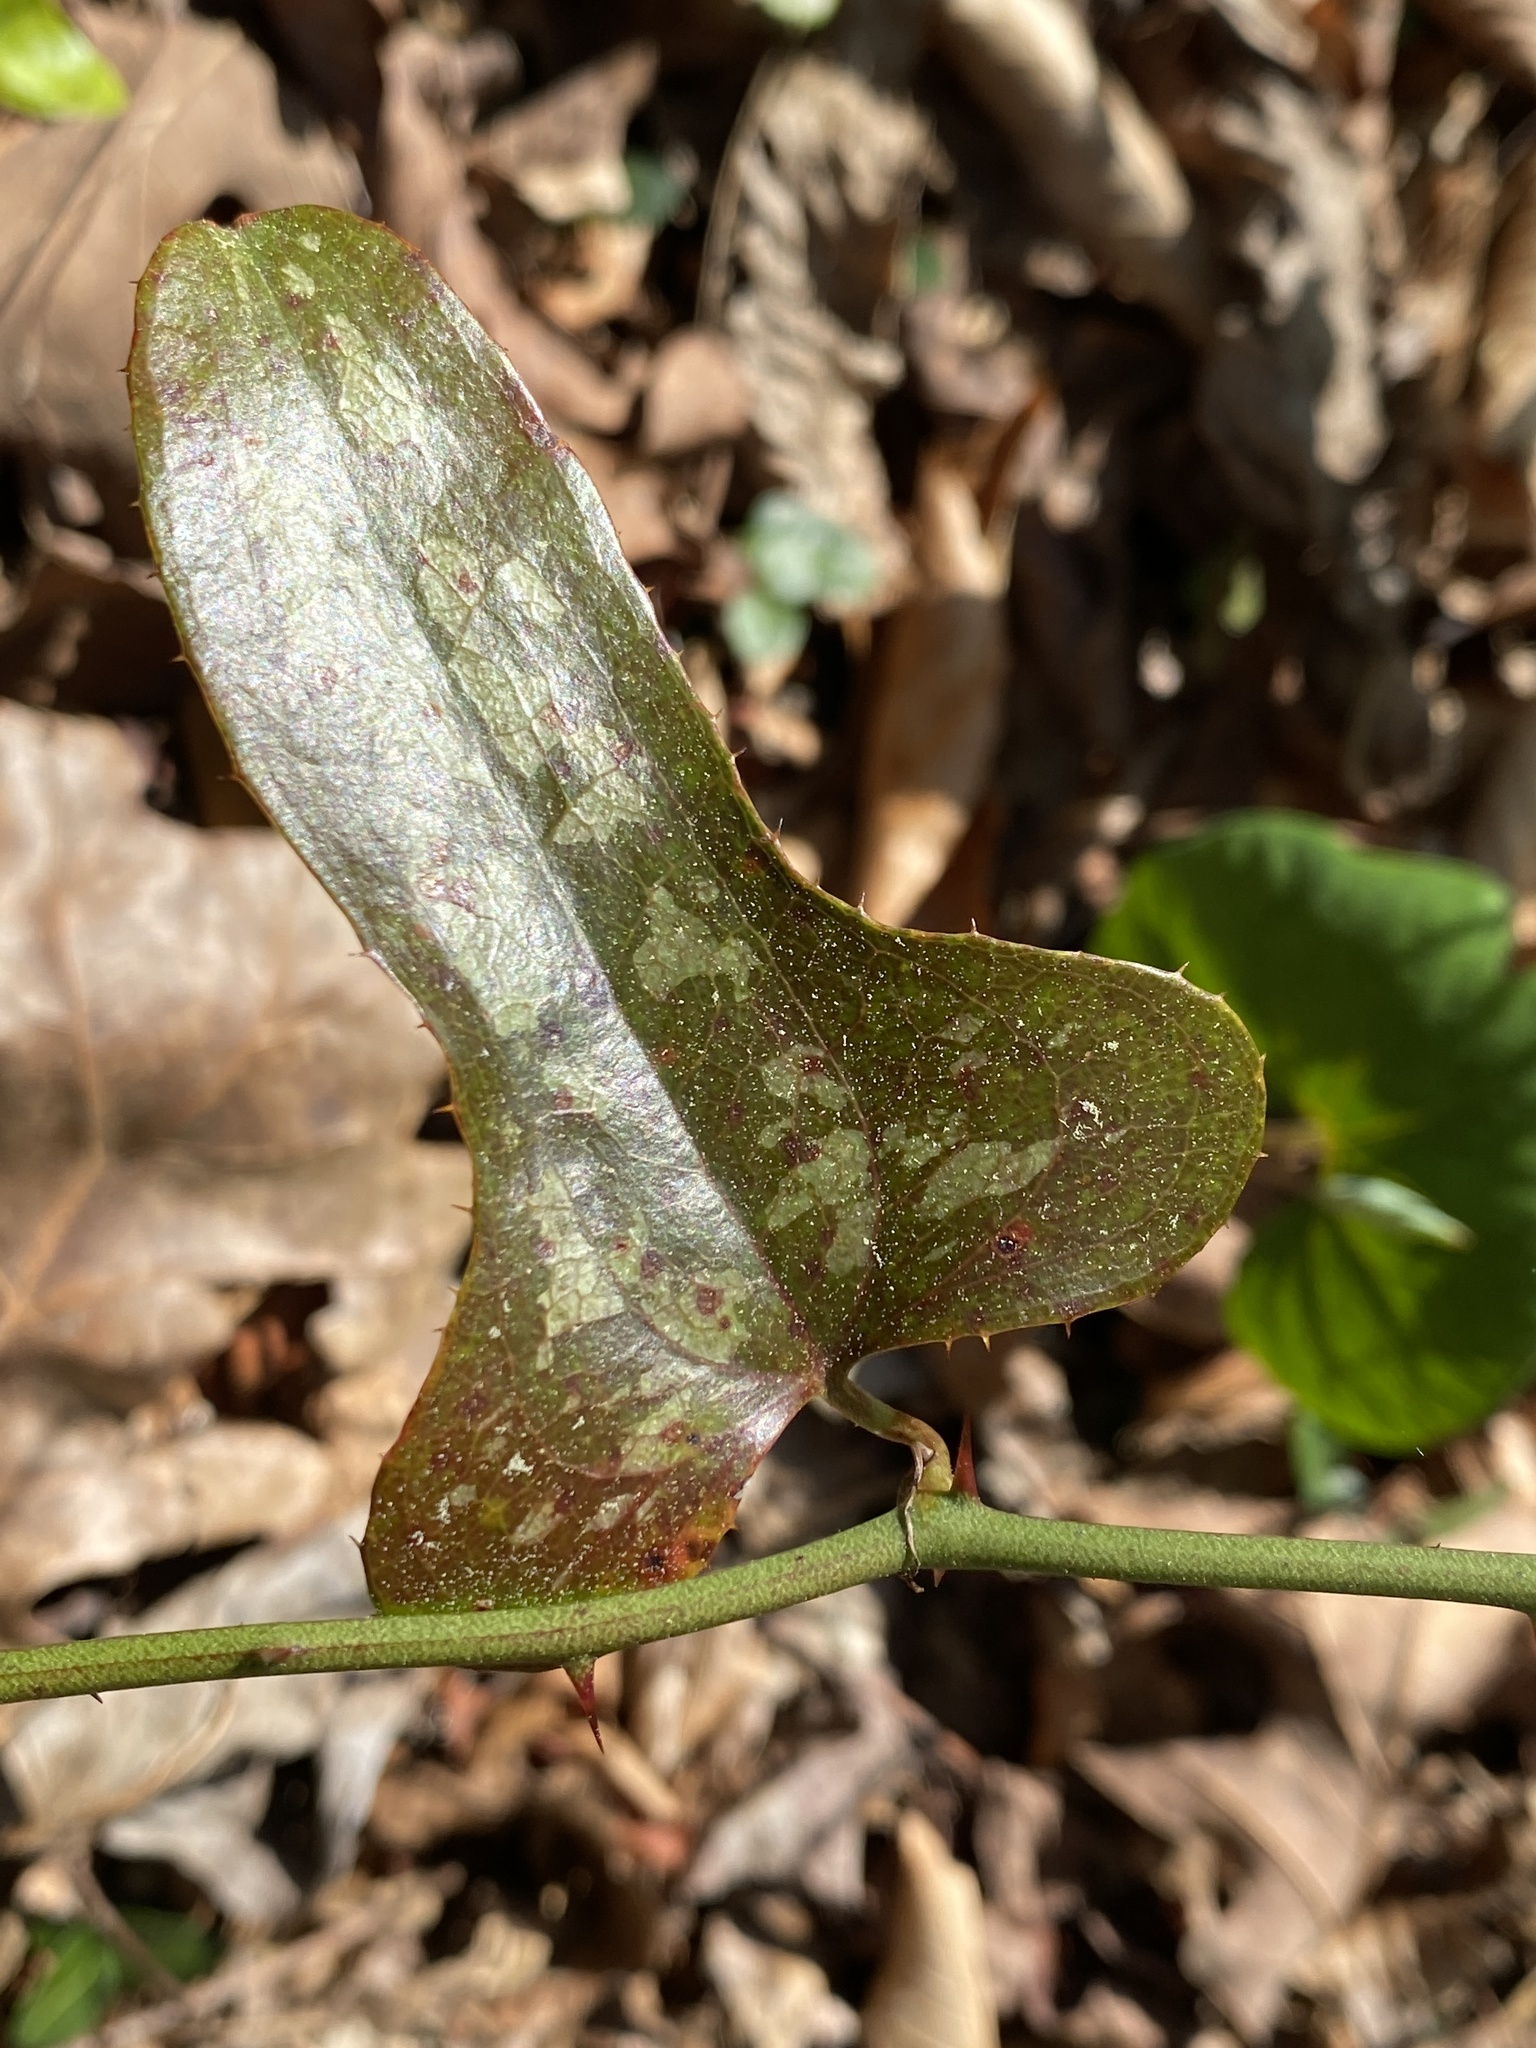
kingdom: Plantae
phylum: Tracheophyta
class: Liliopsida
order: Liliales
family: Smilacaceae
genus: Smilax
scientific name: Smilax bona-nox
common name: Catbrier
